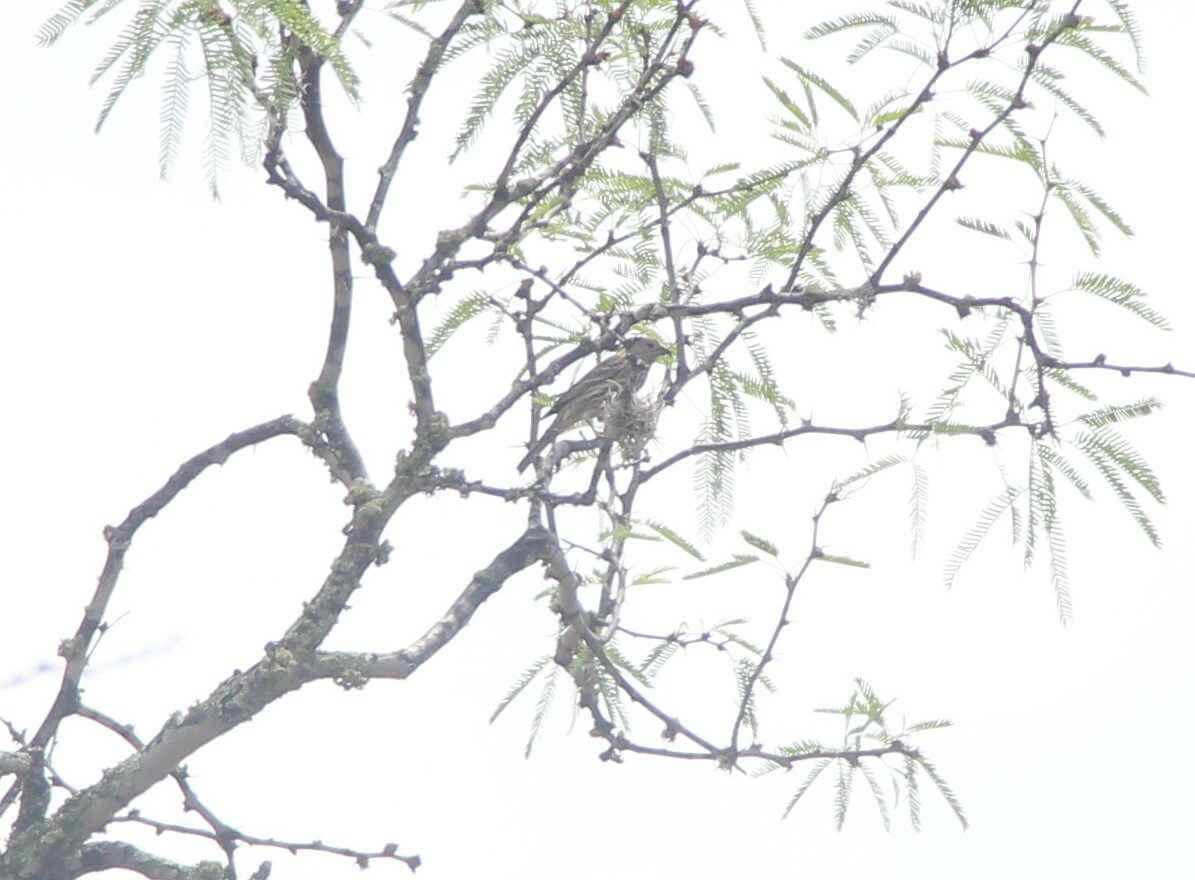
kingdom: Animalia
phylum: Chordata
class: Aves
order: Passeriformes
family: Fringillidae
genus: Haemorhous
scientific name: Haemorhous mexicanus
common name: House finch
